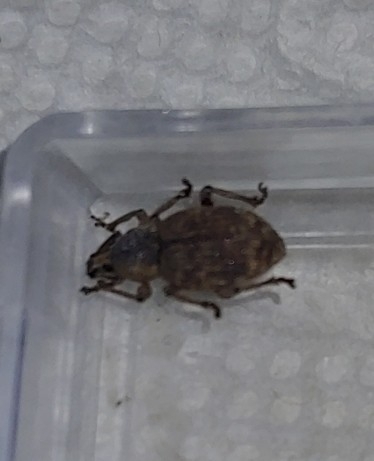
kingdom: Animalia
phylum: Arthropoda
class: Insecta
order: Coleoptera
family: Curculionidae
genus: Otiorhynchus
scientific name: Otiorhynchus singularis
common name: Clay-coloured weevil
